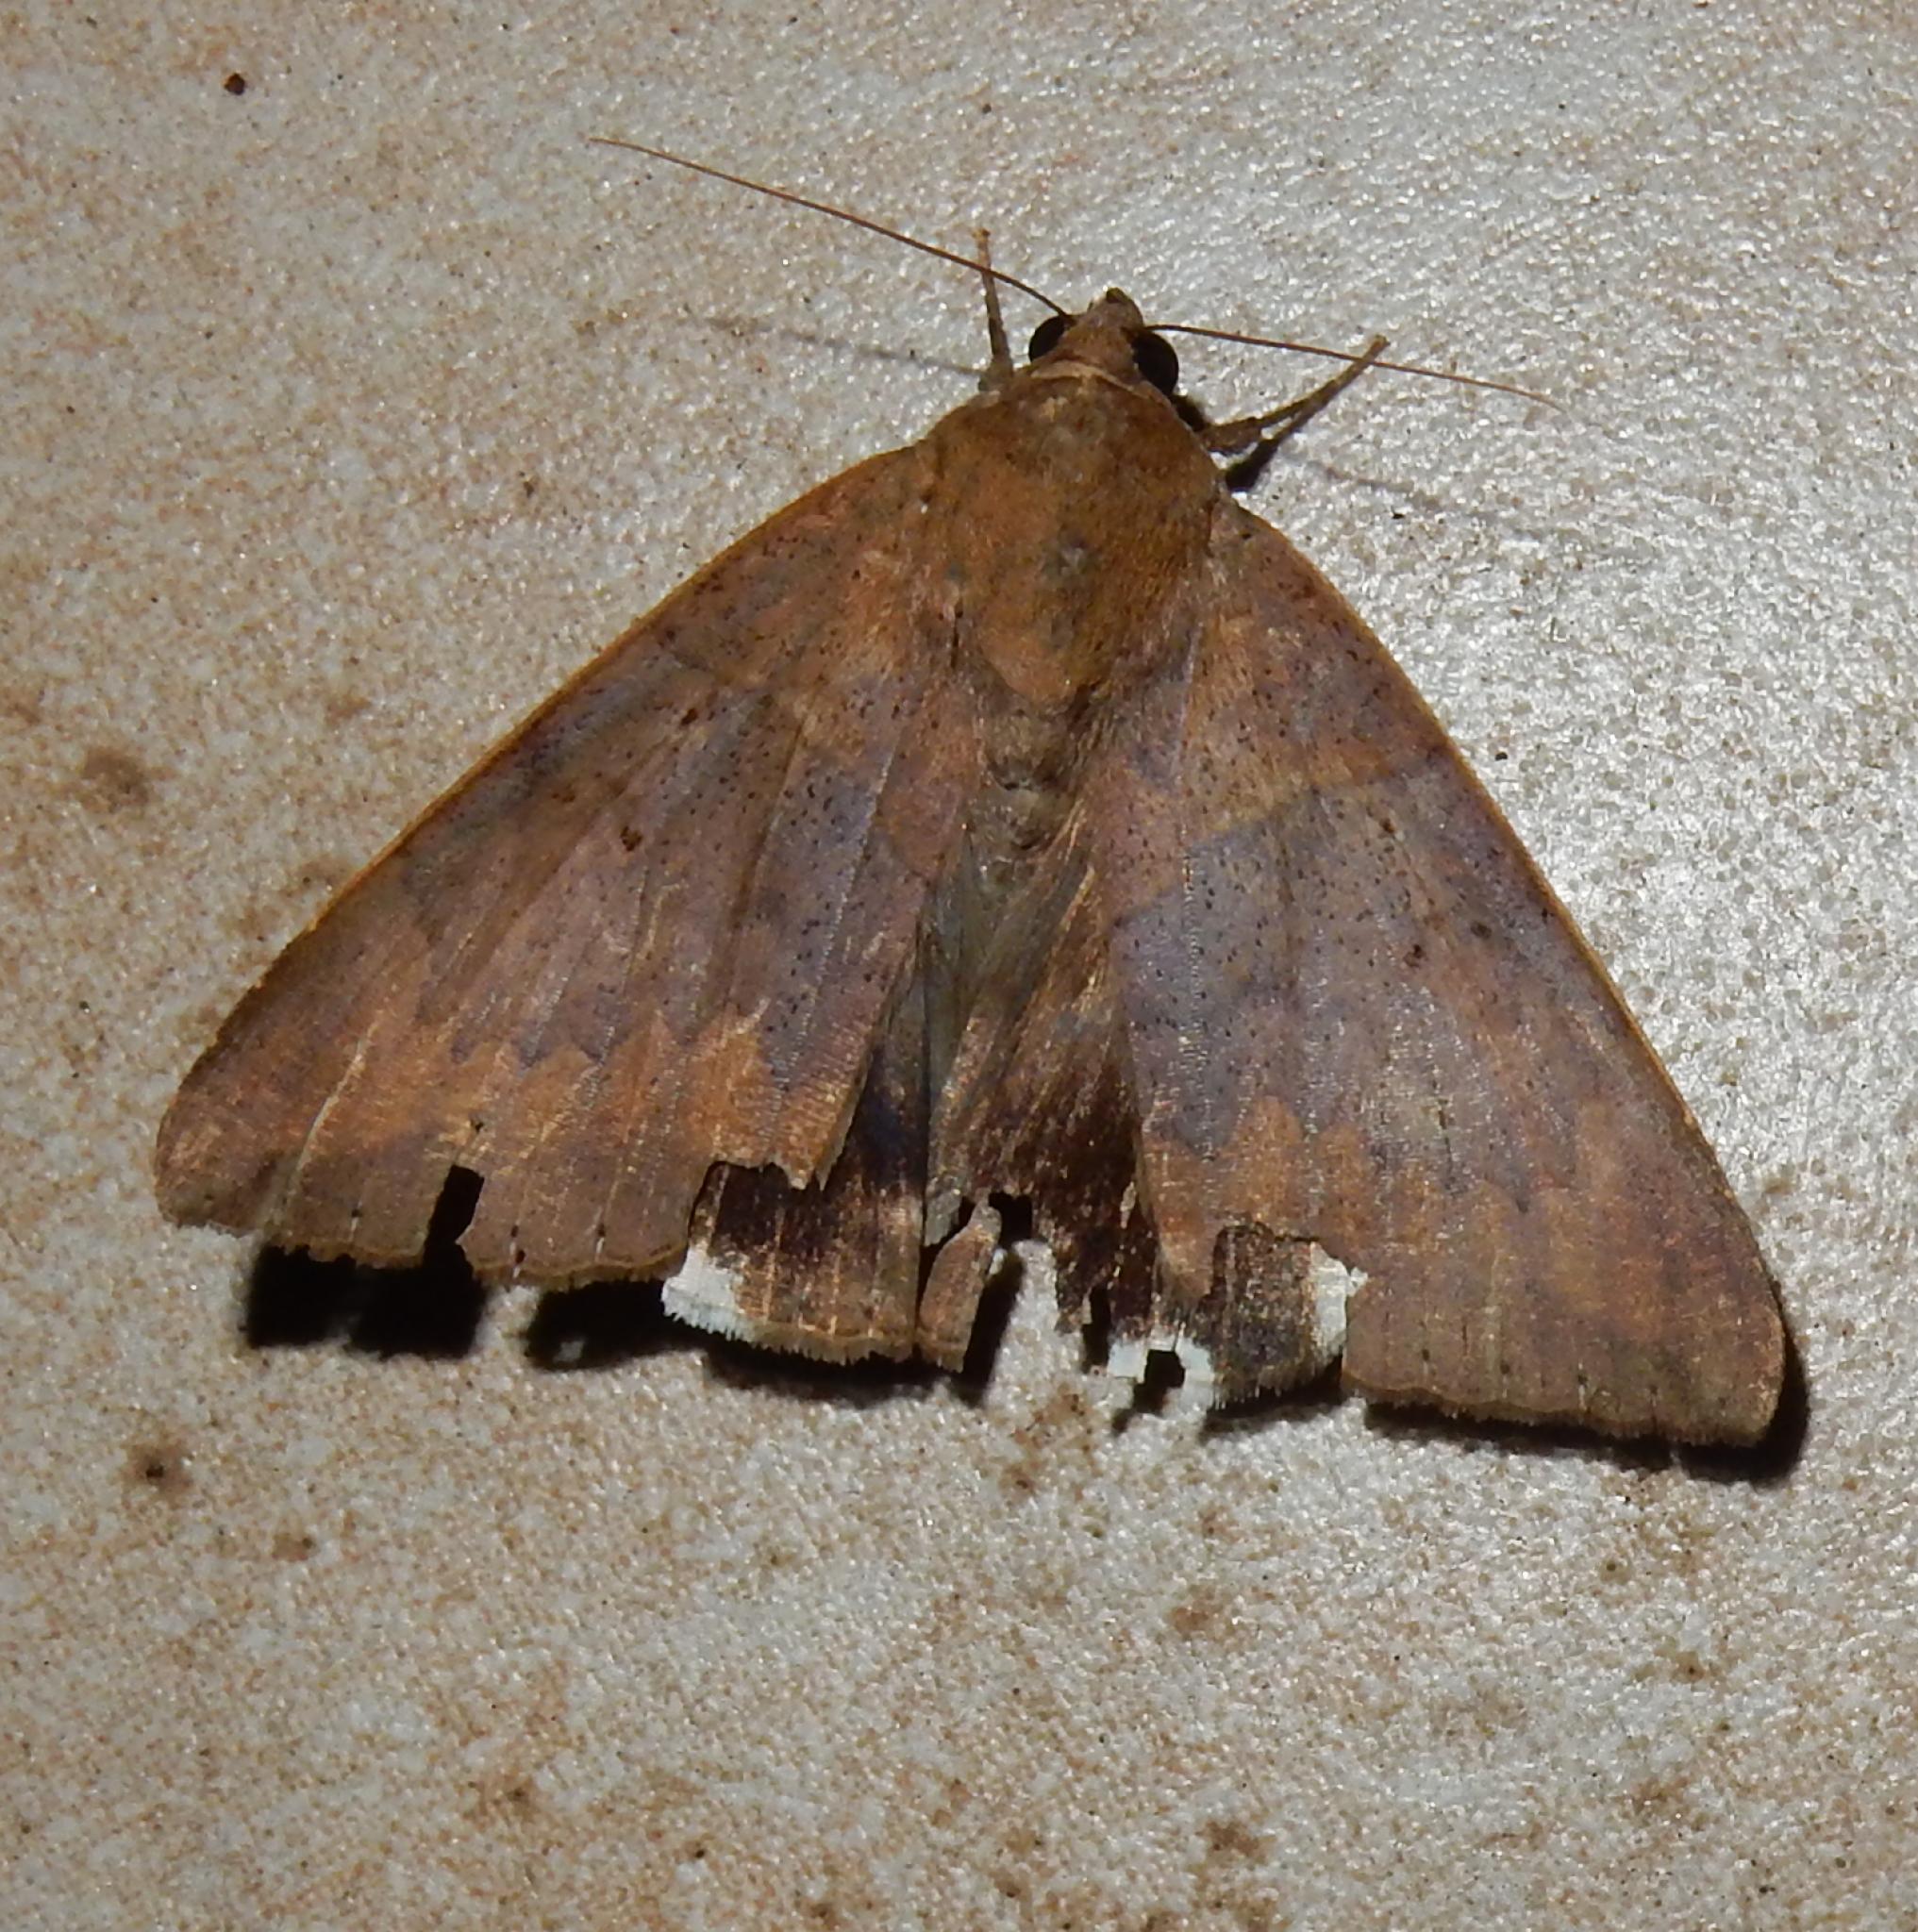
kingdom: Animalia
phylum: Arthropoda
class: Insecta
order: Lepidoptera
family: Erebidae
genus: Achaea
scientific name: Achaea lienardi
